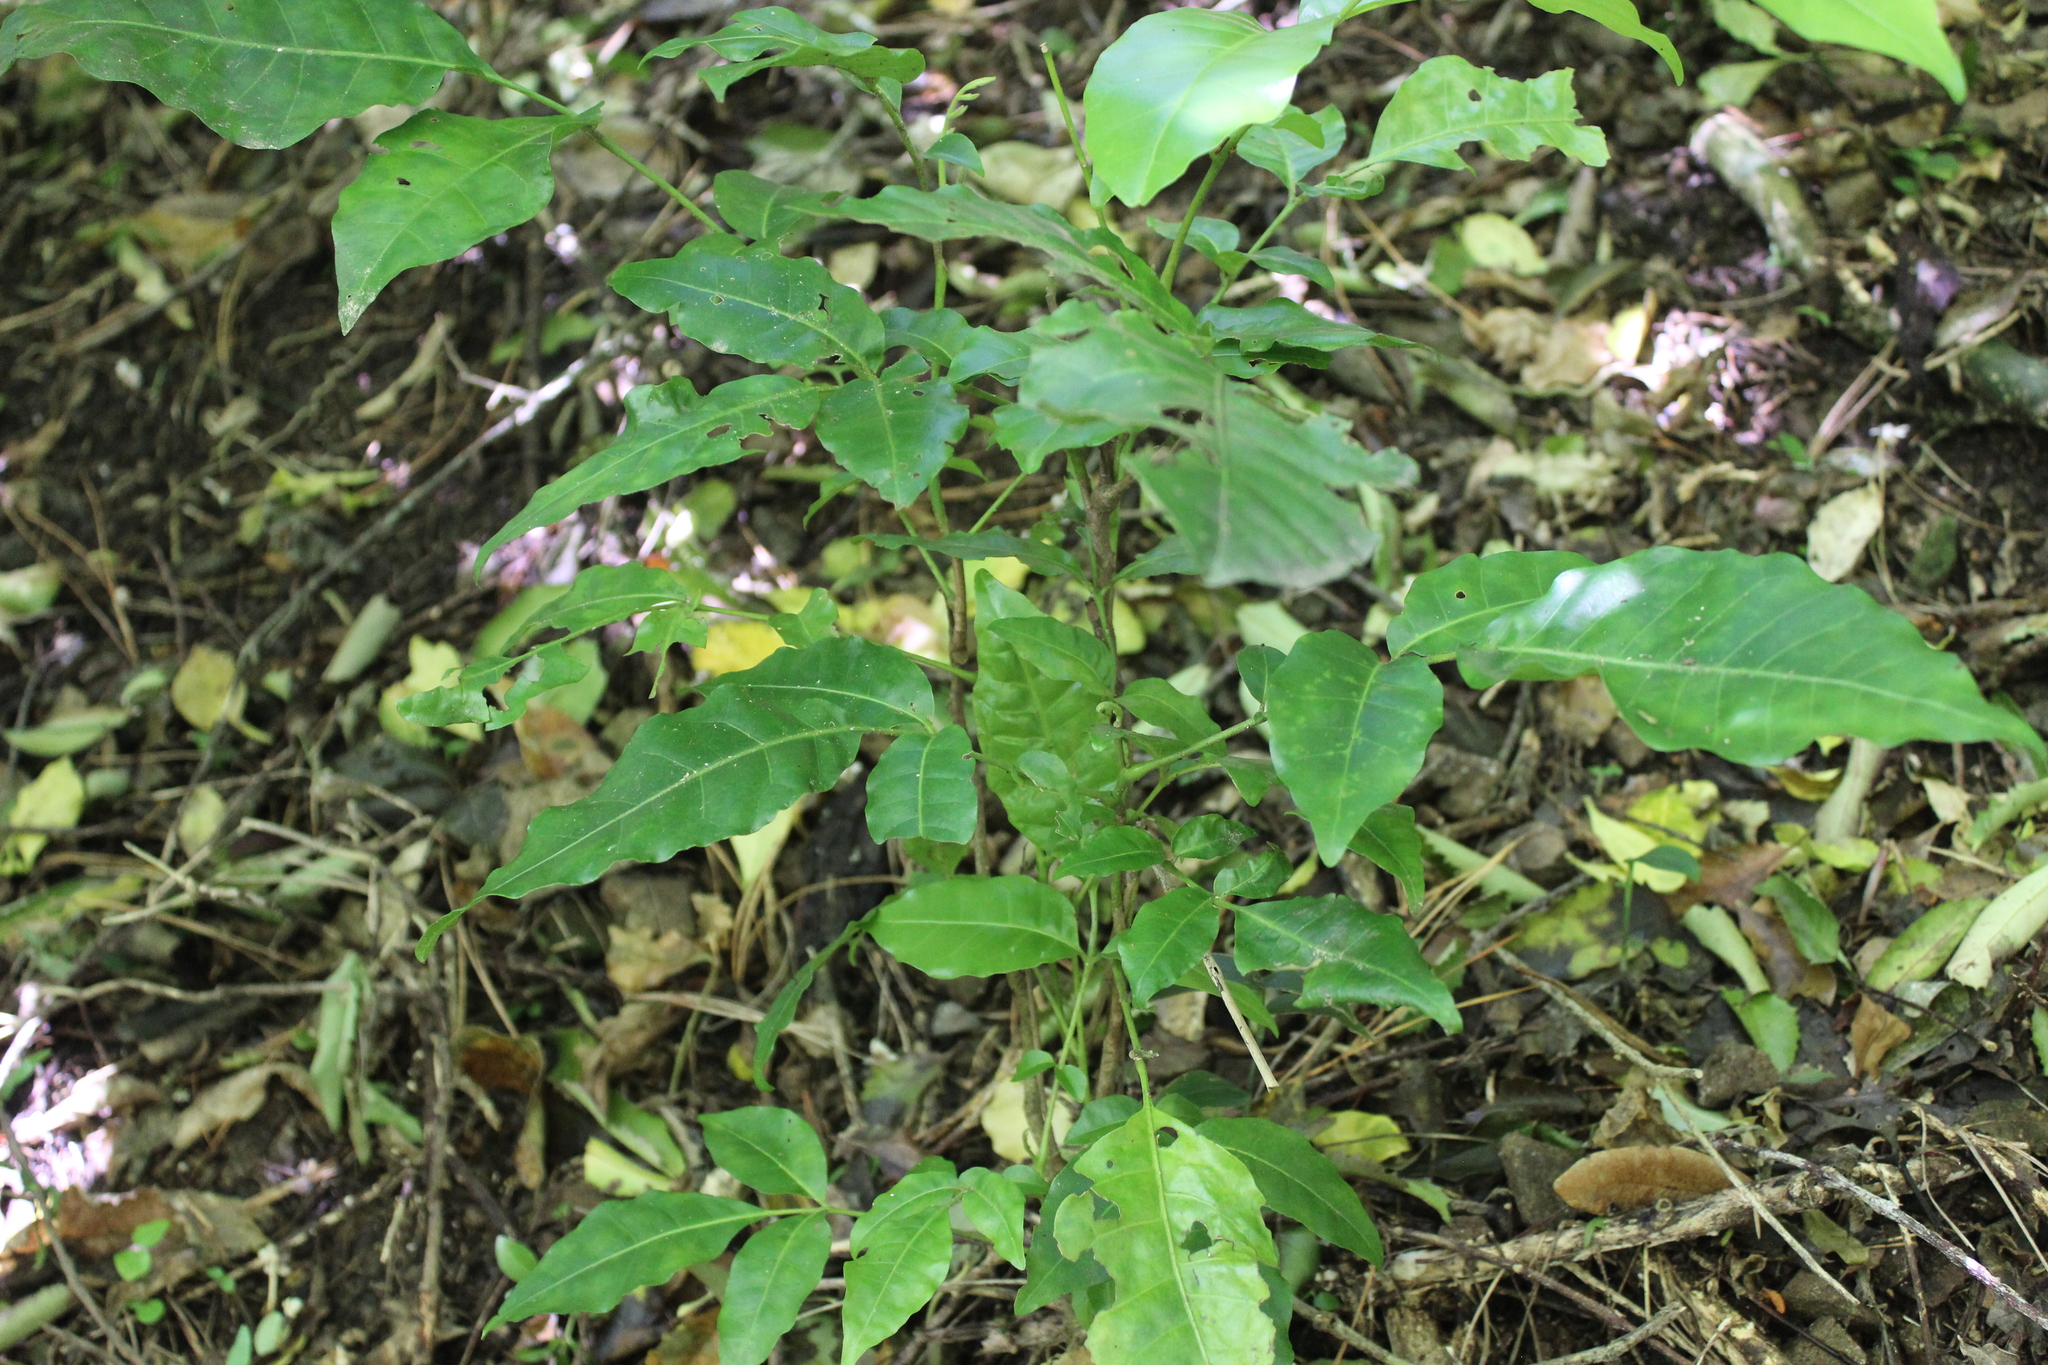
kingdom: Plantae
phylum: Tracheophyta
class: Magnoliopsida
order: Sapindales
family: Meliaceae
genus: Didymocheton
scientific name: Didymocheton spectabilis
